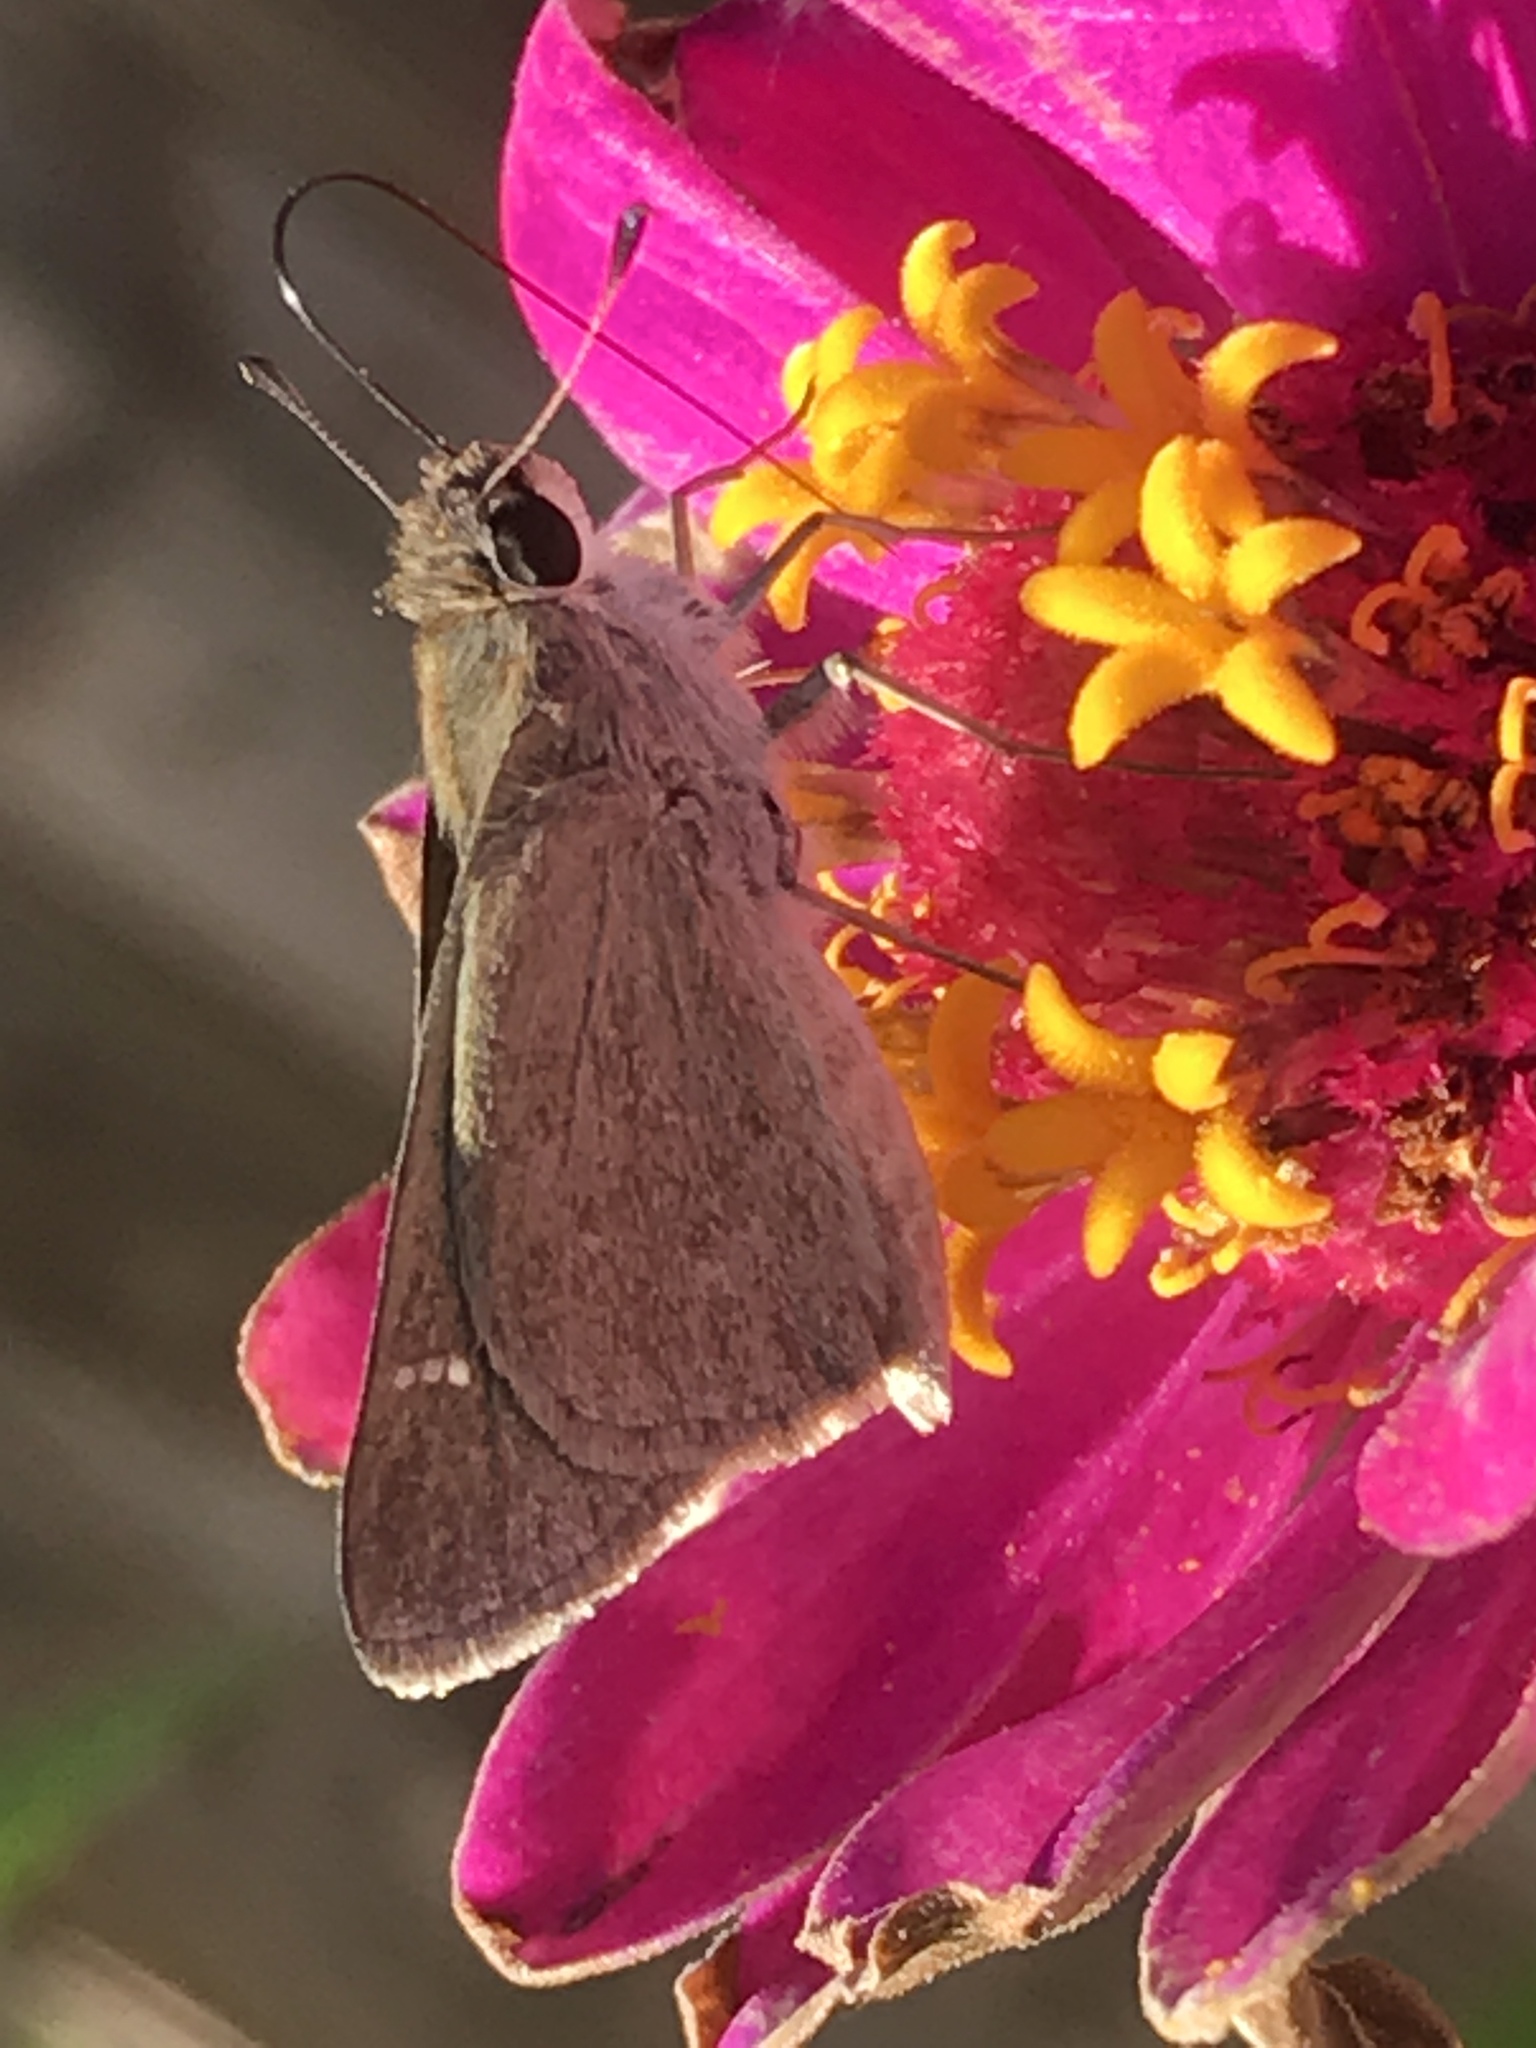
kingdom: Animalia
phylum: Arthropoda
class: Insecta
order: Lepidoptera
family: Hesperiidae
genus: Lerodea
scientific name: Lerodea eufala
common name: Eufala skipper
